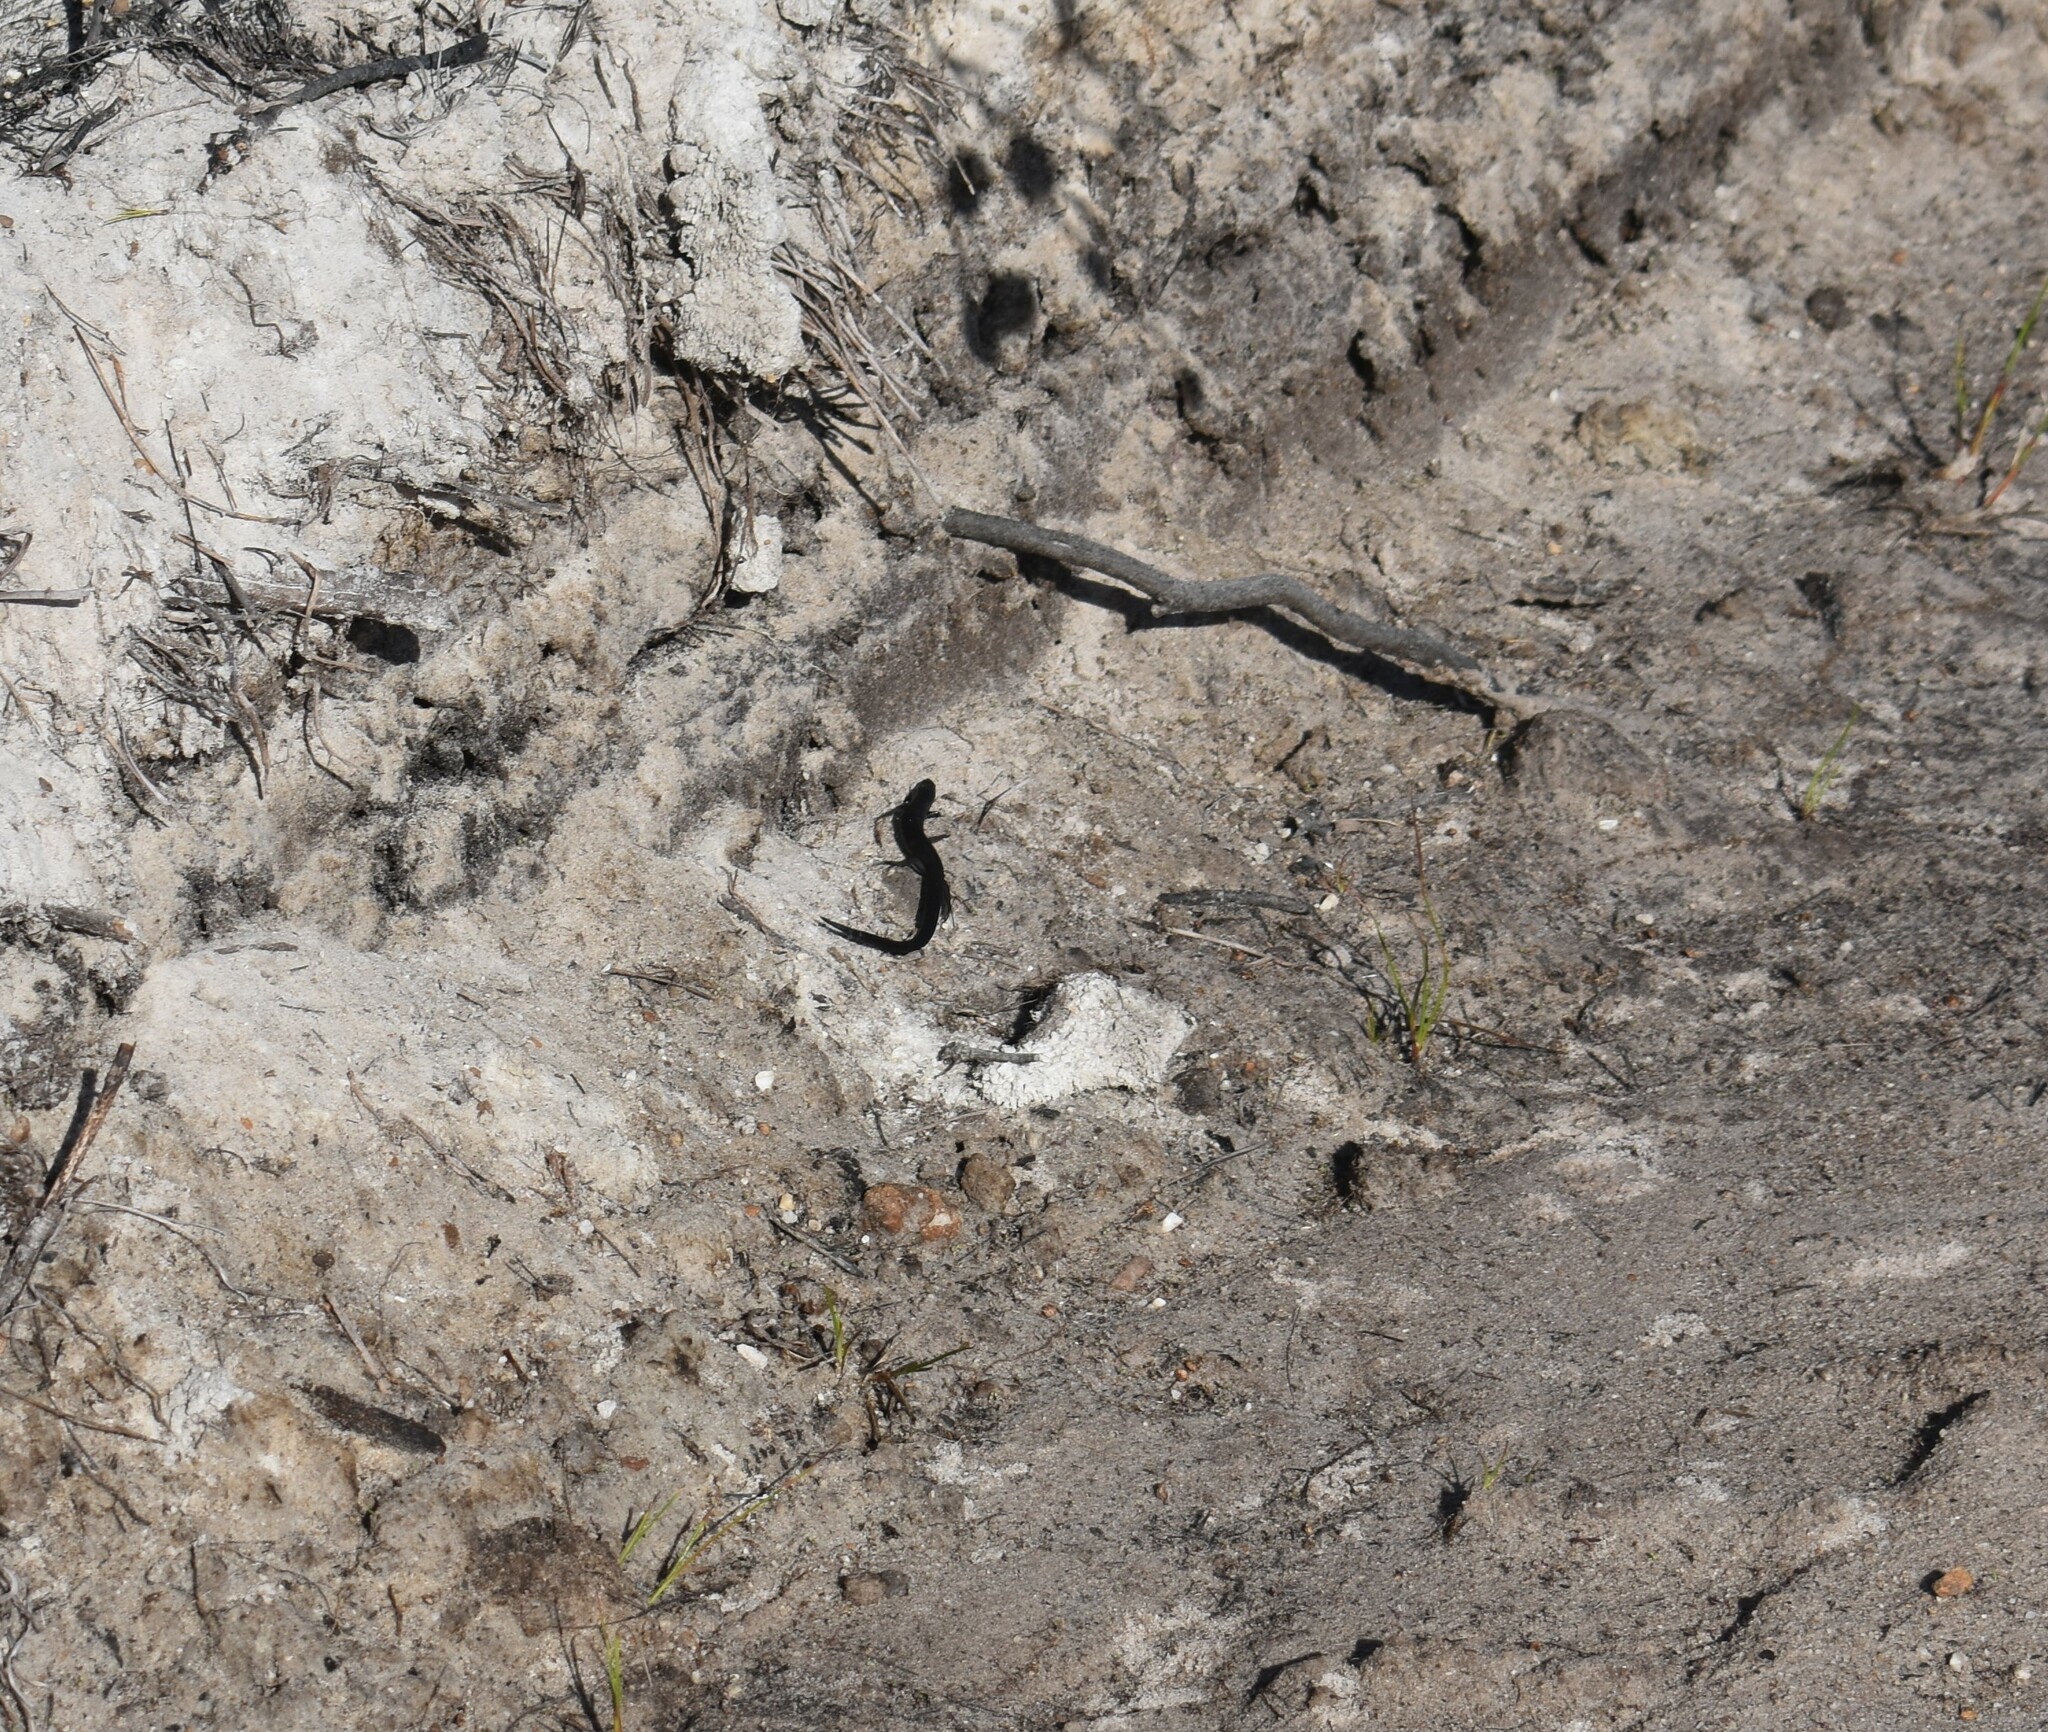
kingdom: Animalia
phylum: Chordata
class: Squamata
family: Gerrhosauridae
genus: Tetradactylus
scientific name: Tetradactylus seps
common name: Five-toed whip lizard
